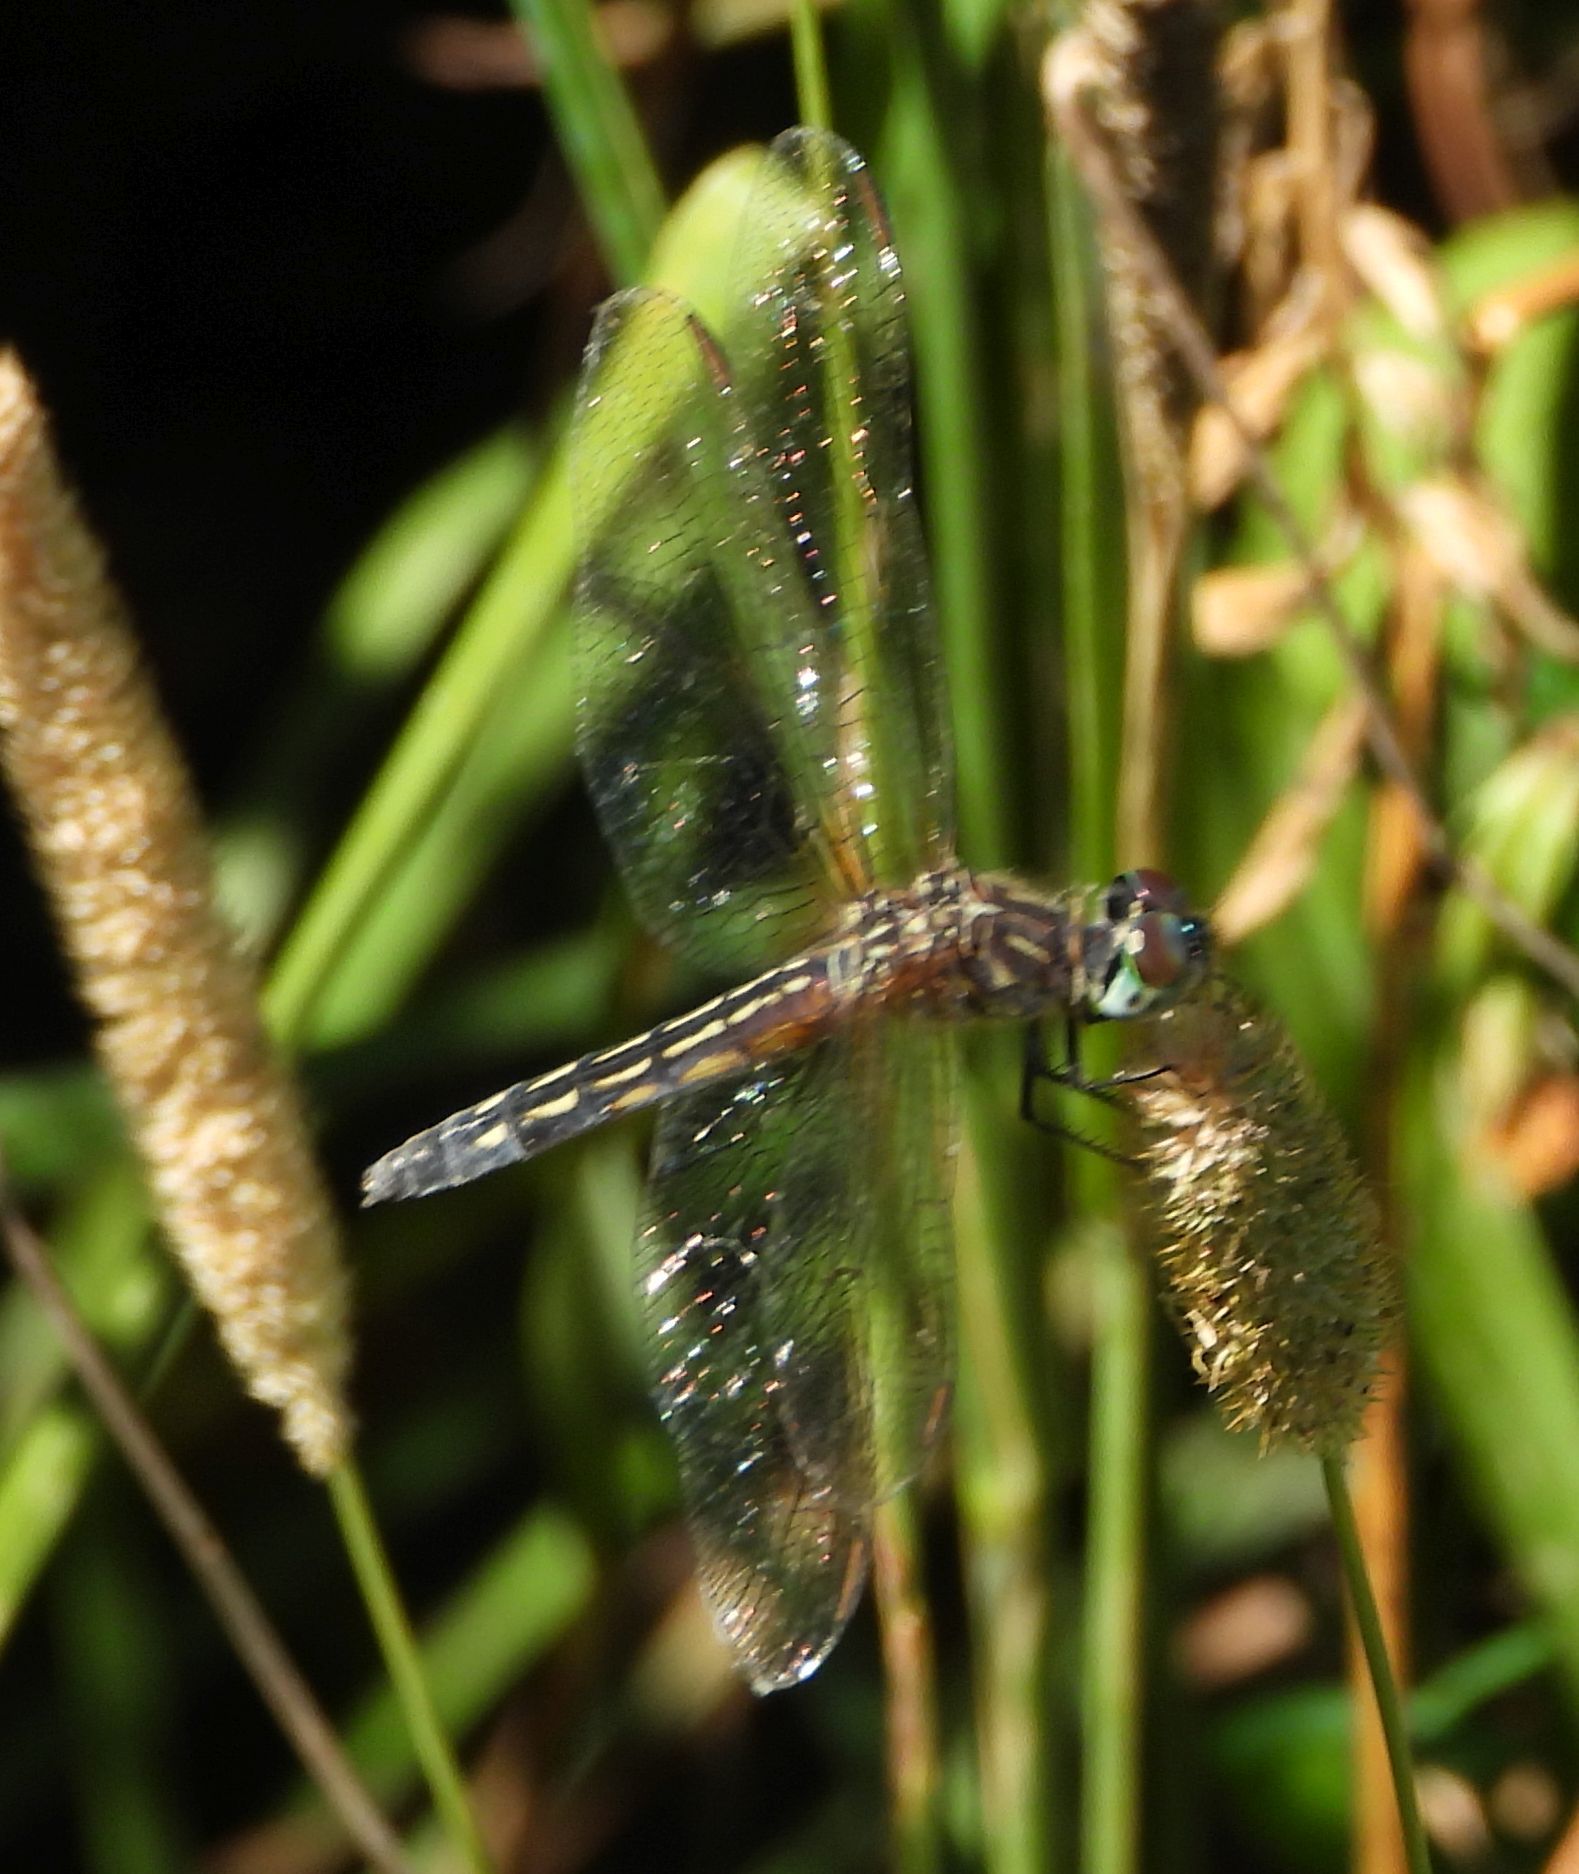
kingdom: Animalia
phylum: Arthropoda
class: Insecta
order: Odonata
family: Libellulidae
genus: Pachydiplax
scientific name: Pachydiplax longipennis
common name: Blue dasher
